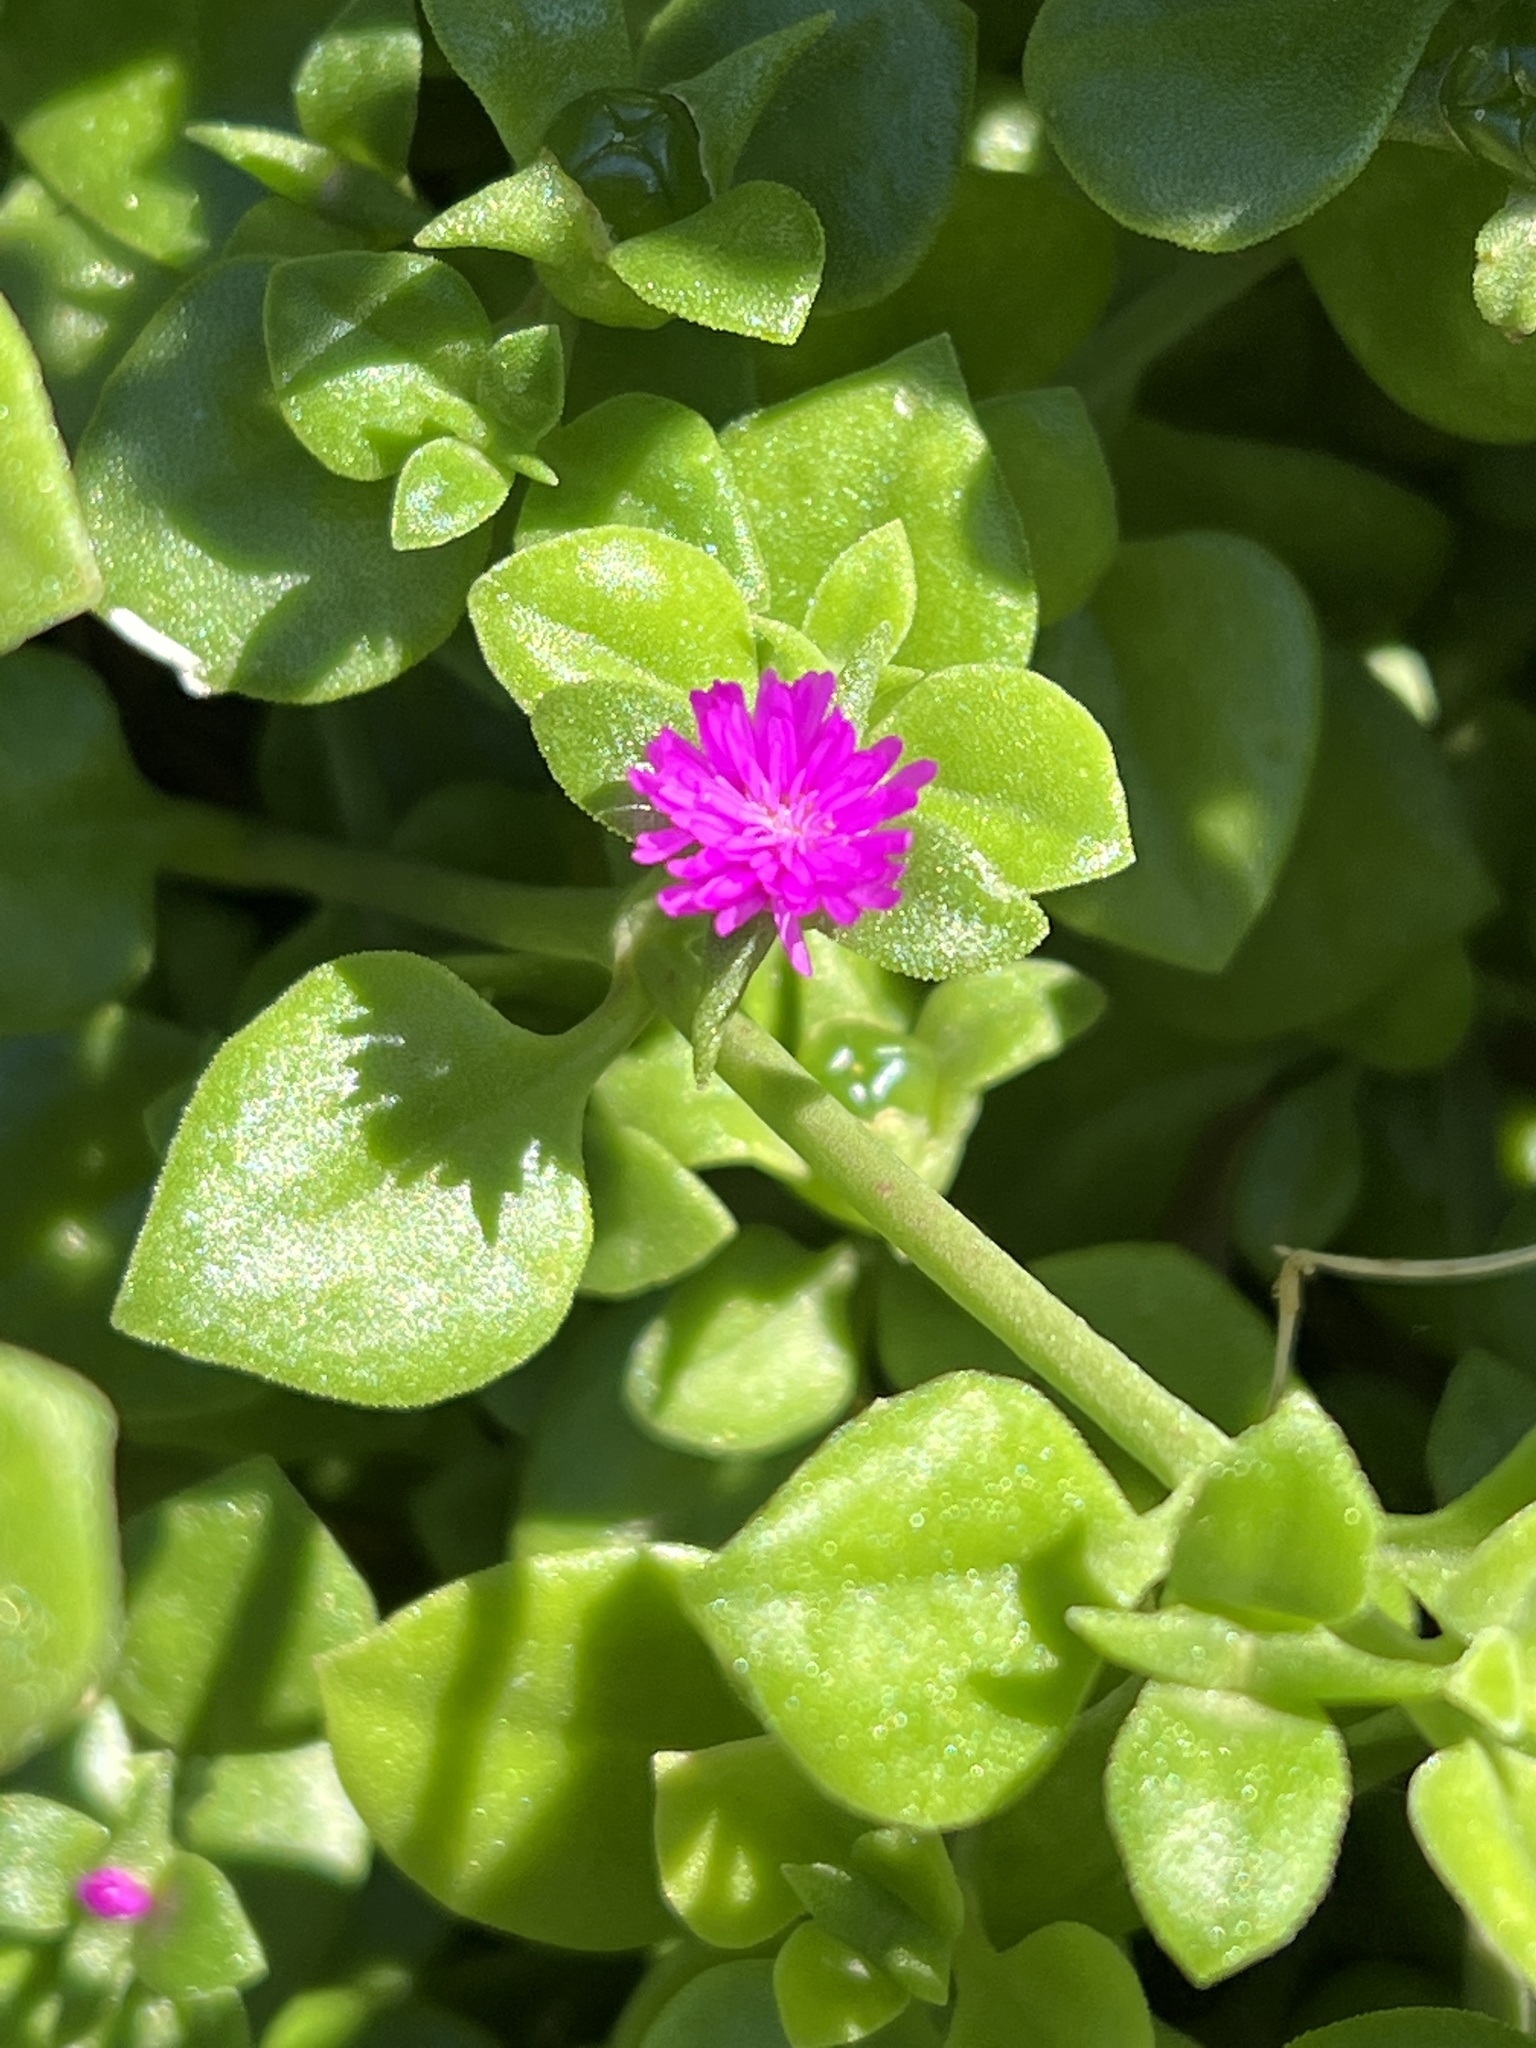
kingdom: Plantae
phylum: Tracheophyta
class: Magnoliopsida
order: Caryophyllales
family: Aizoaceae
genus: Mesembryanthemum
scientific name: Mesembryanthemum cordifolium
